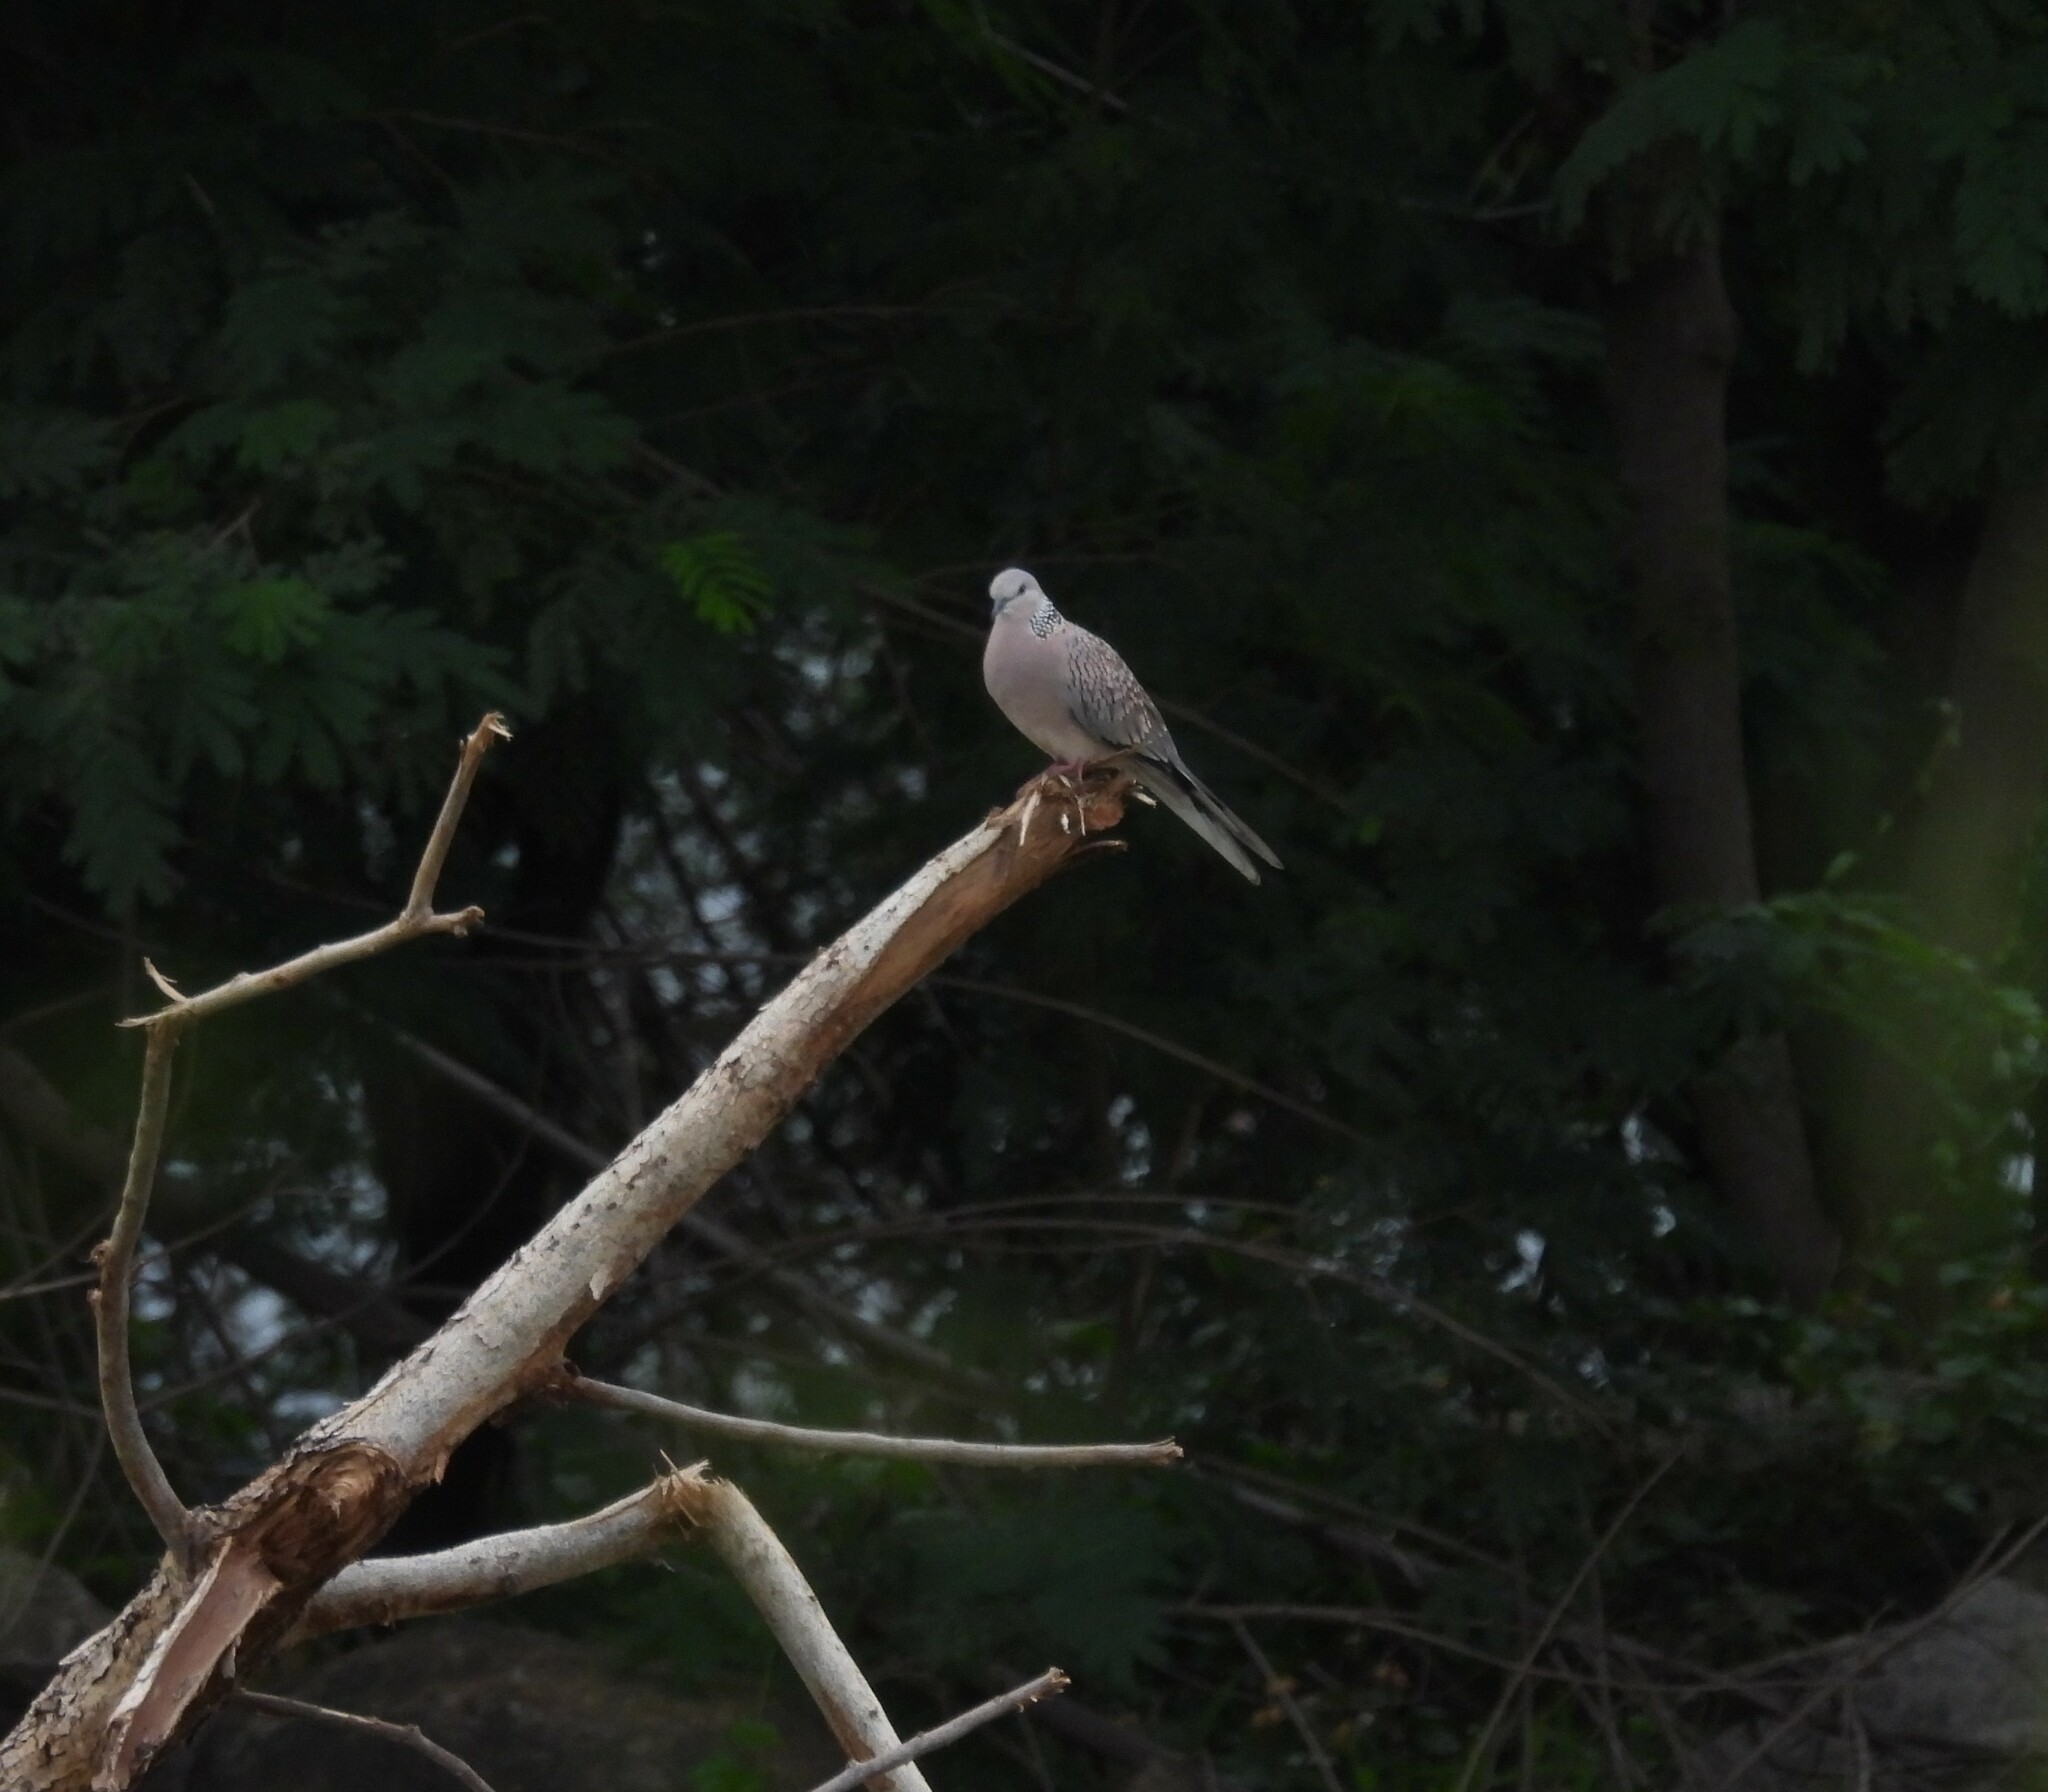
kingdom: Animalia
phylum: Chordata
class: Aves
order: Columbiformes
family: Columbidae
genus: Spilopelia
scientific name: Spilopelia chinensis
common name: Spotted dove
